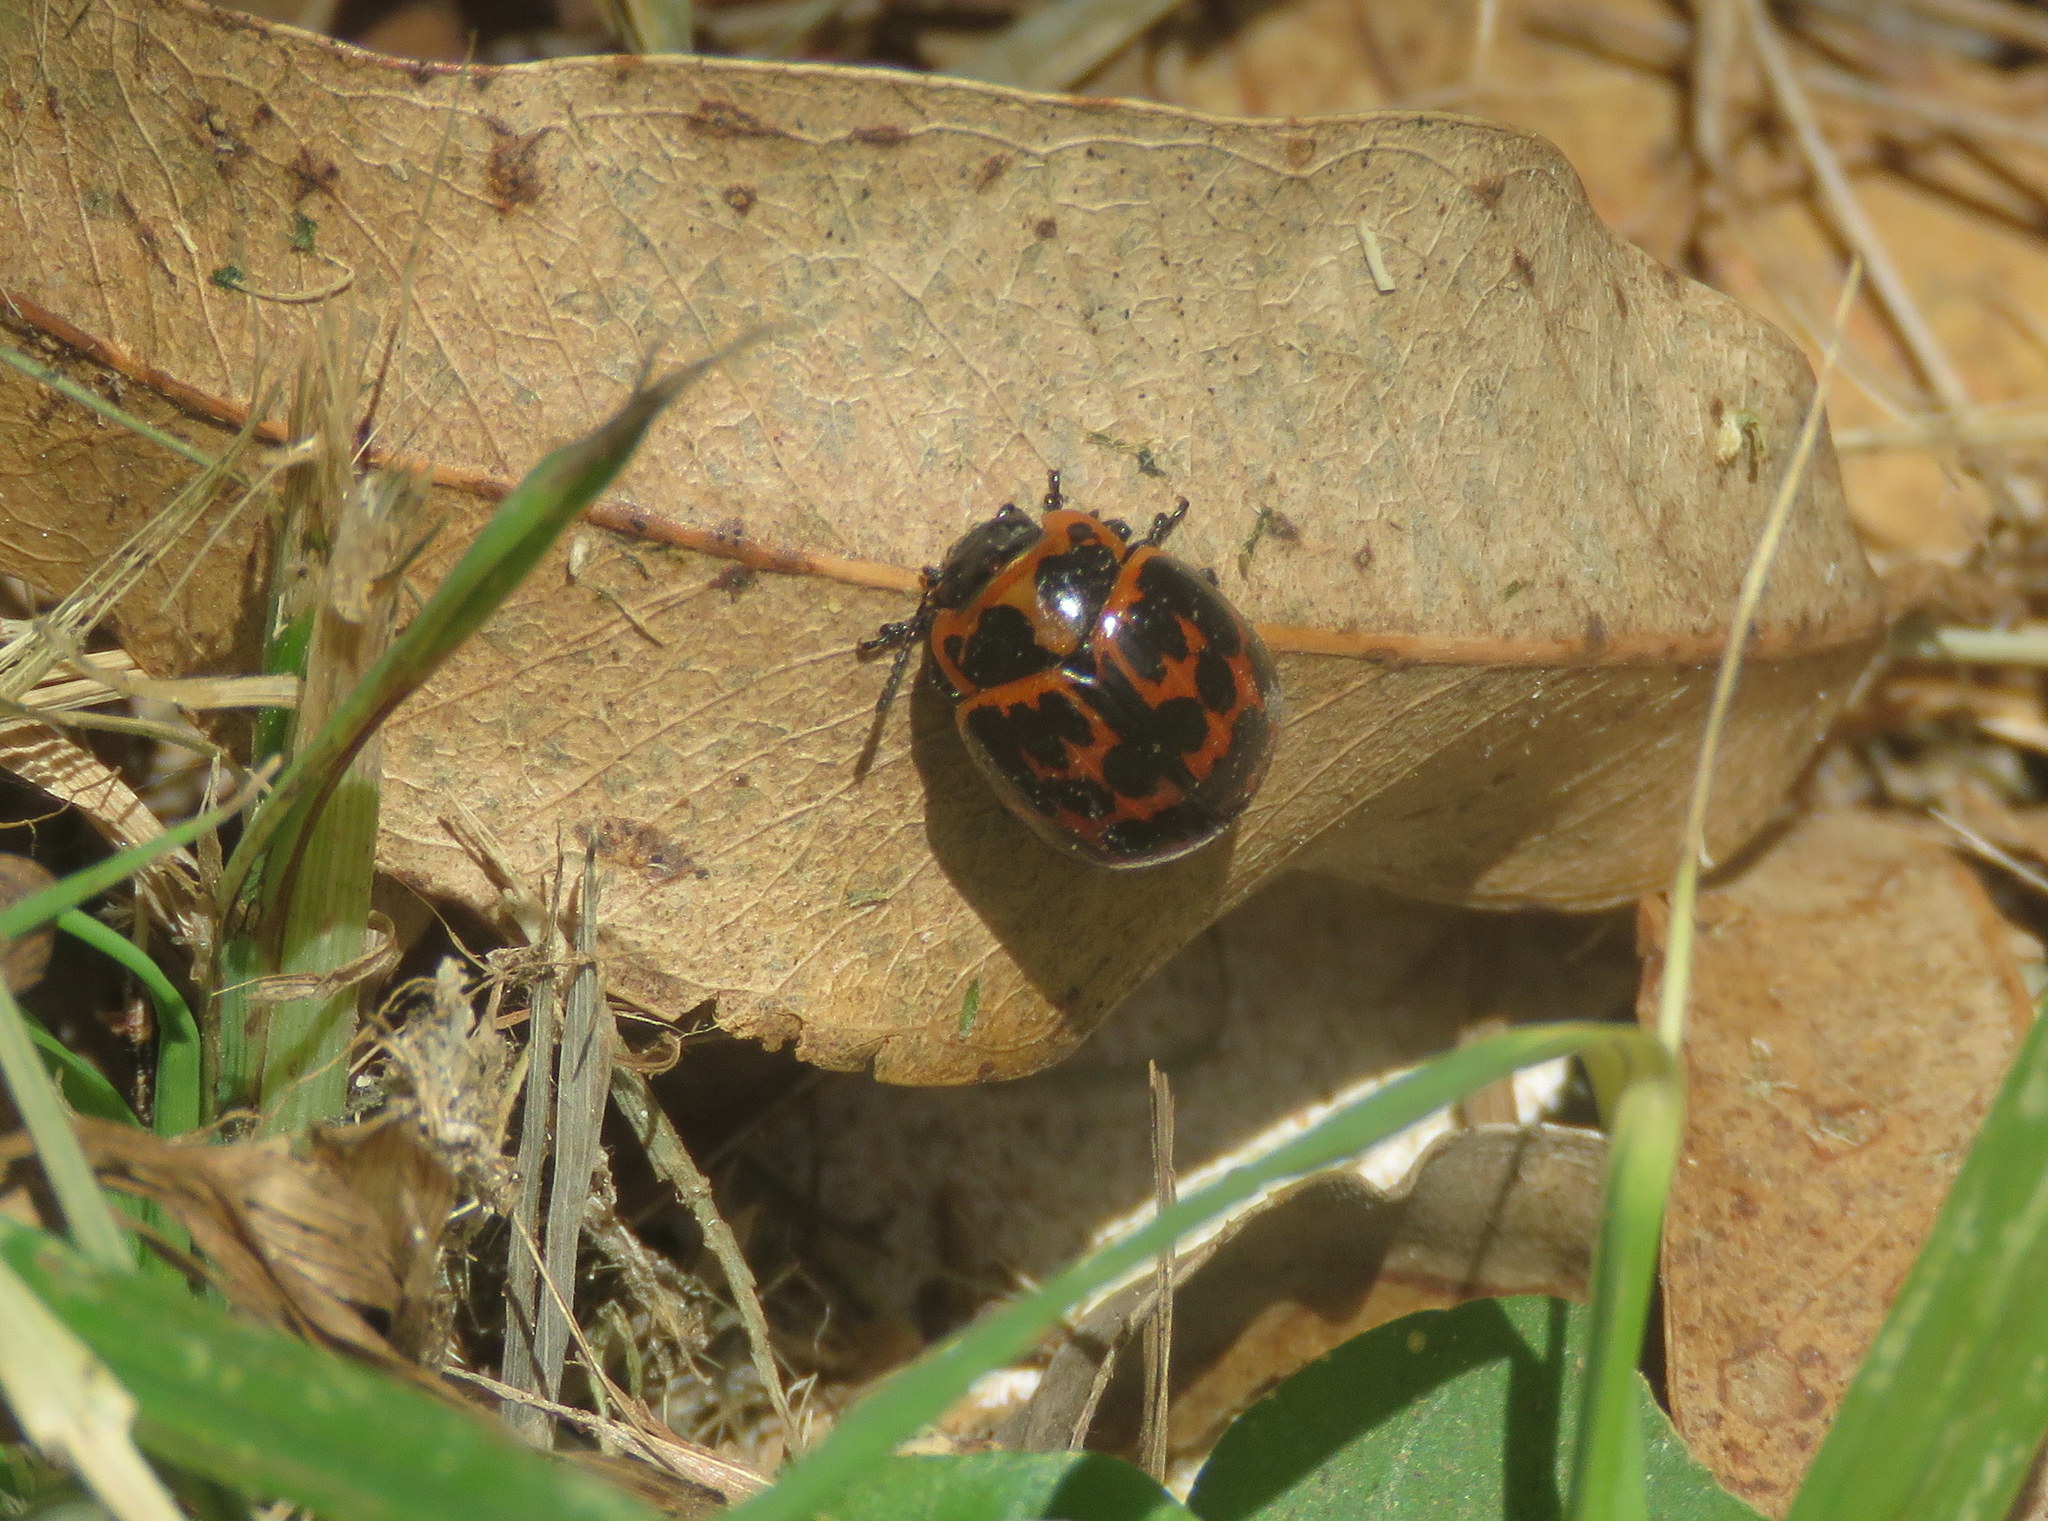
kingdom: Animalia
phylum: Arthropoda
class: Insecta
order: Coleoptera
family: Chrysomelidae
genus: Platyphora
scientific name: Platyphora
